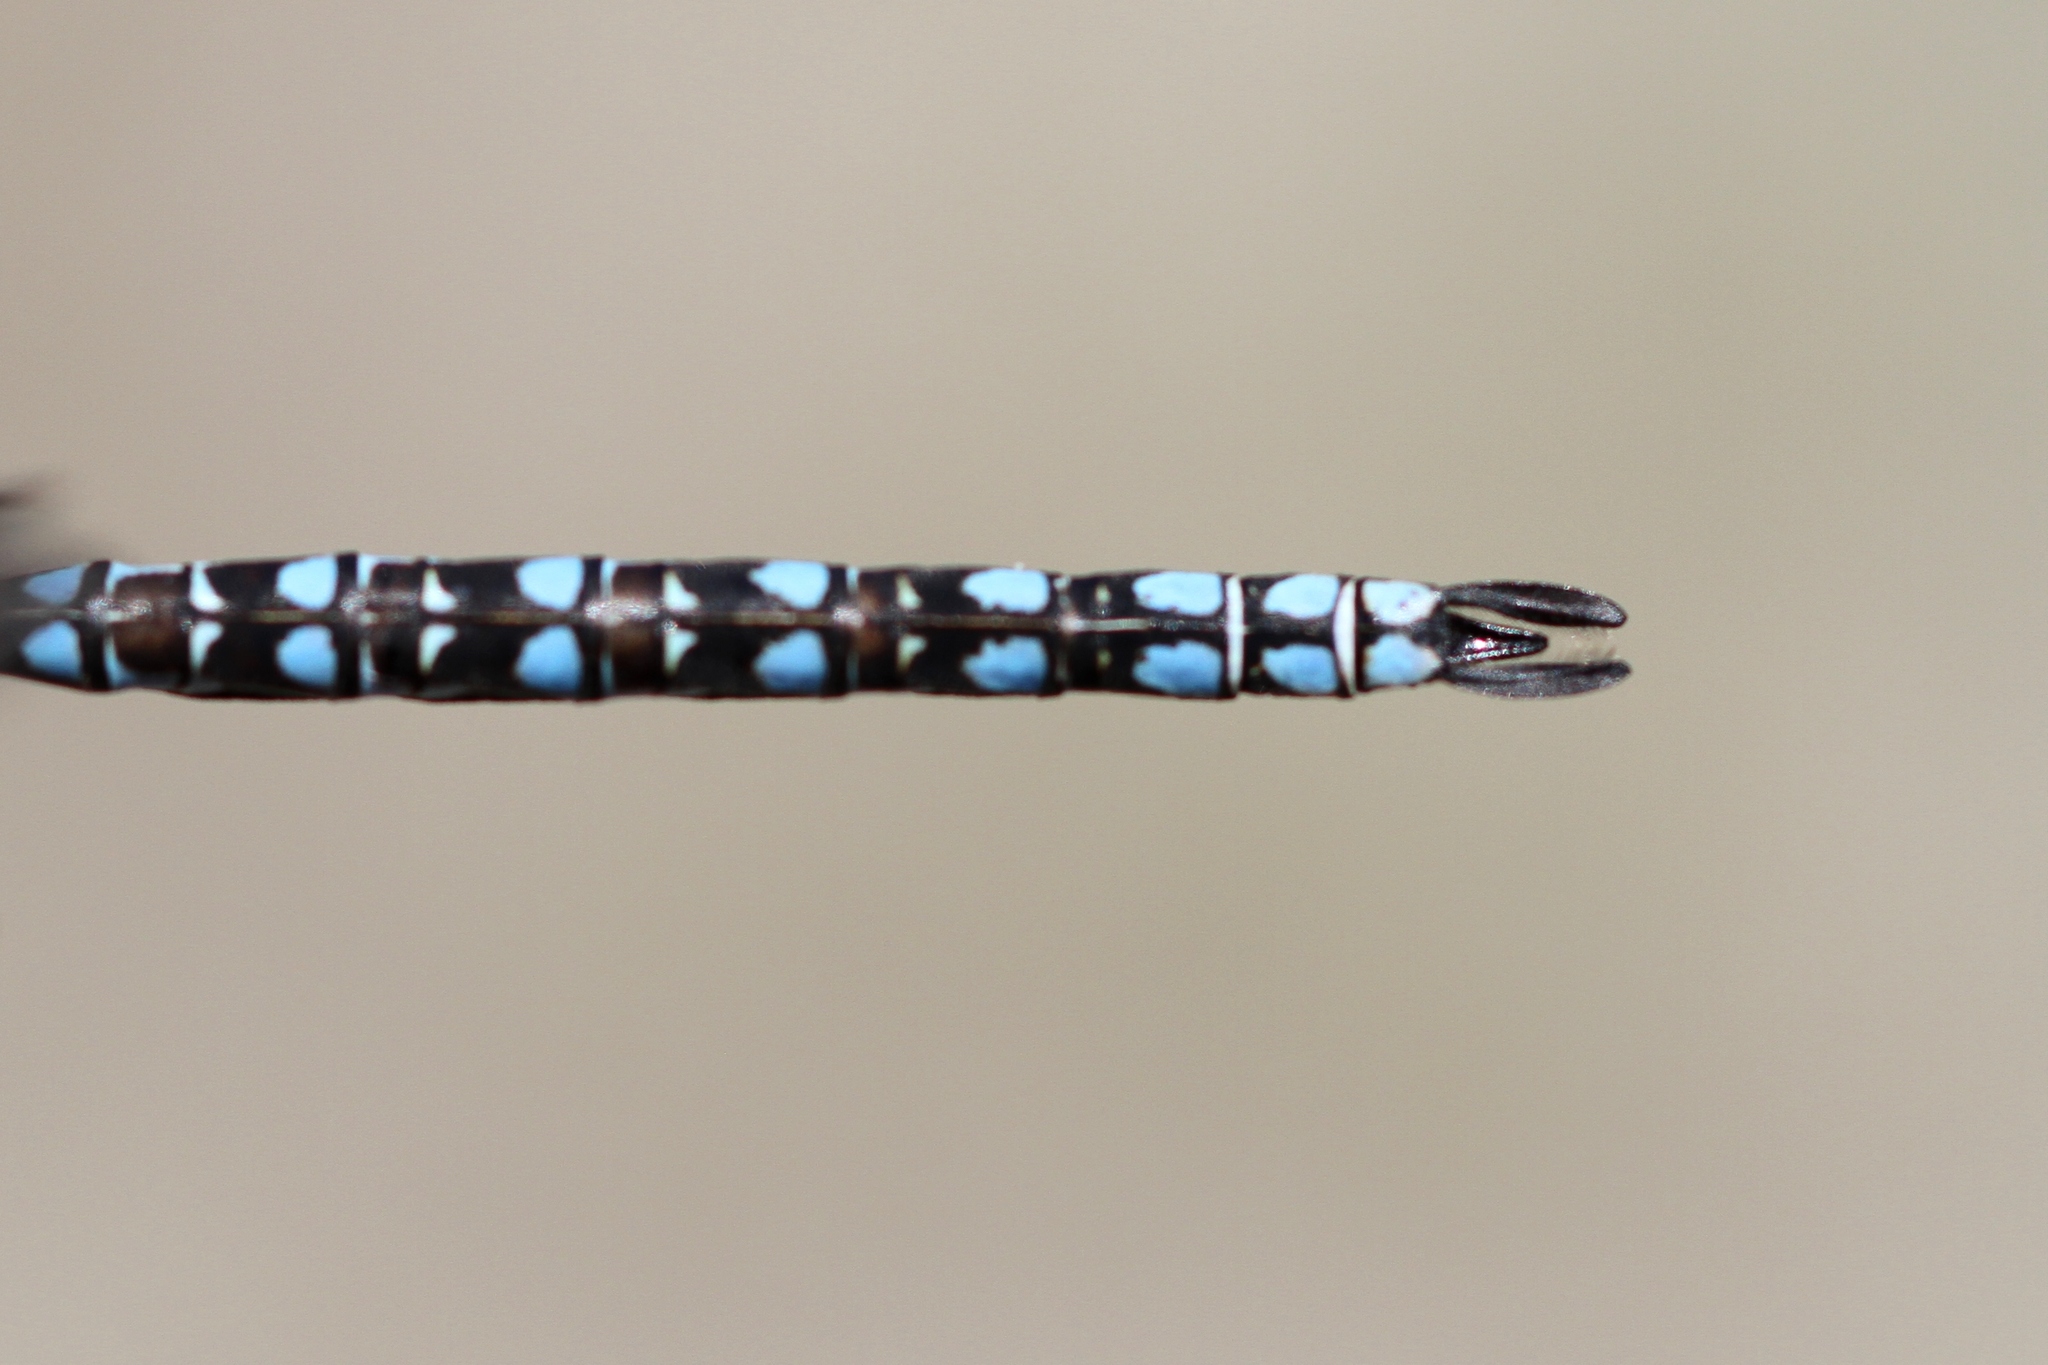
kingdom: Animalia
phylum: Arthropoda
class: Insecta
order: Odonata
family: Aeshnidae
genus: Aeshna
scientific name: Aeshna sitchensis
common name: Zigzag darner
